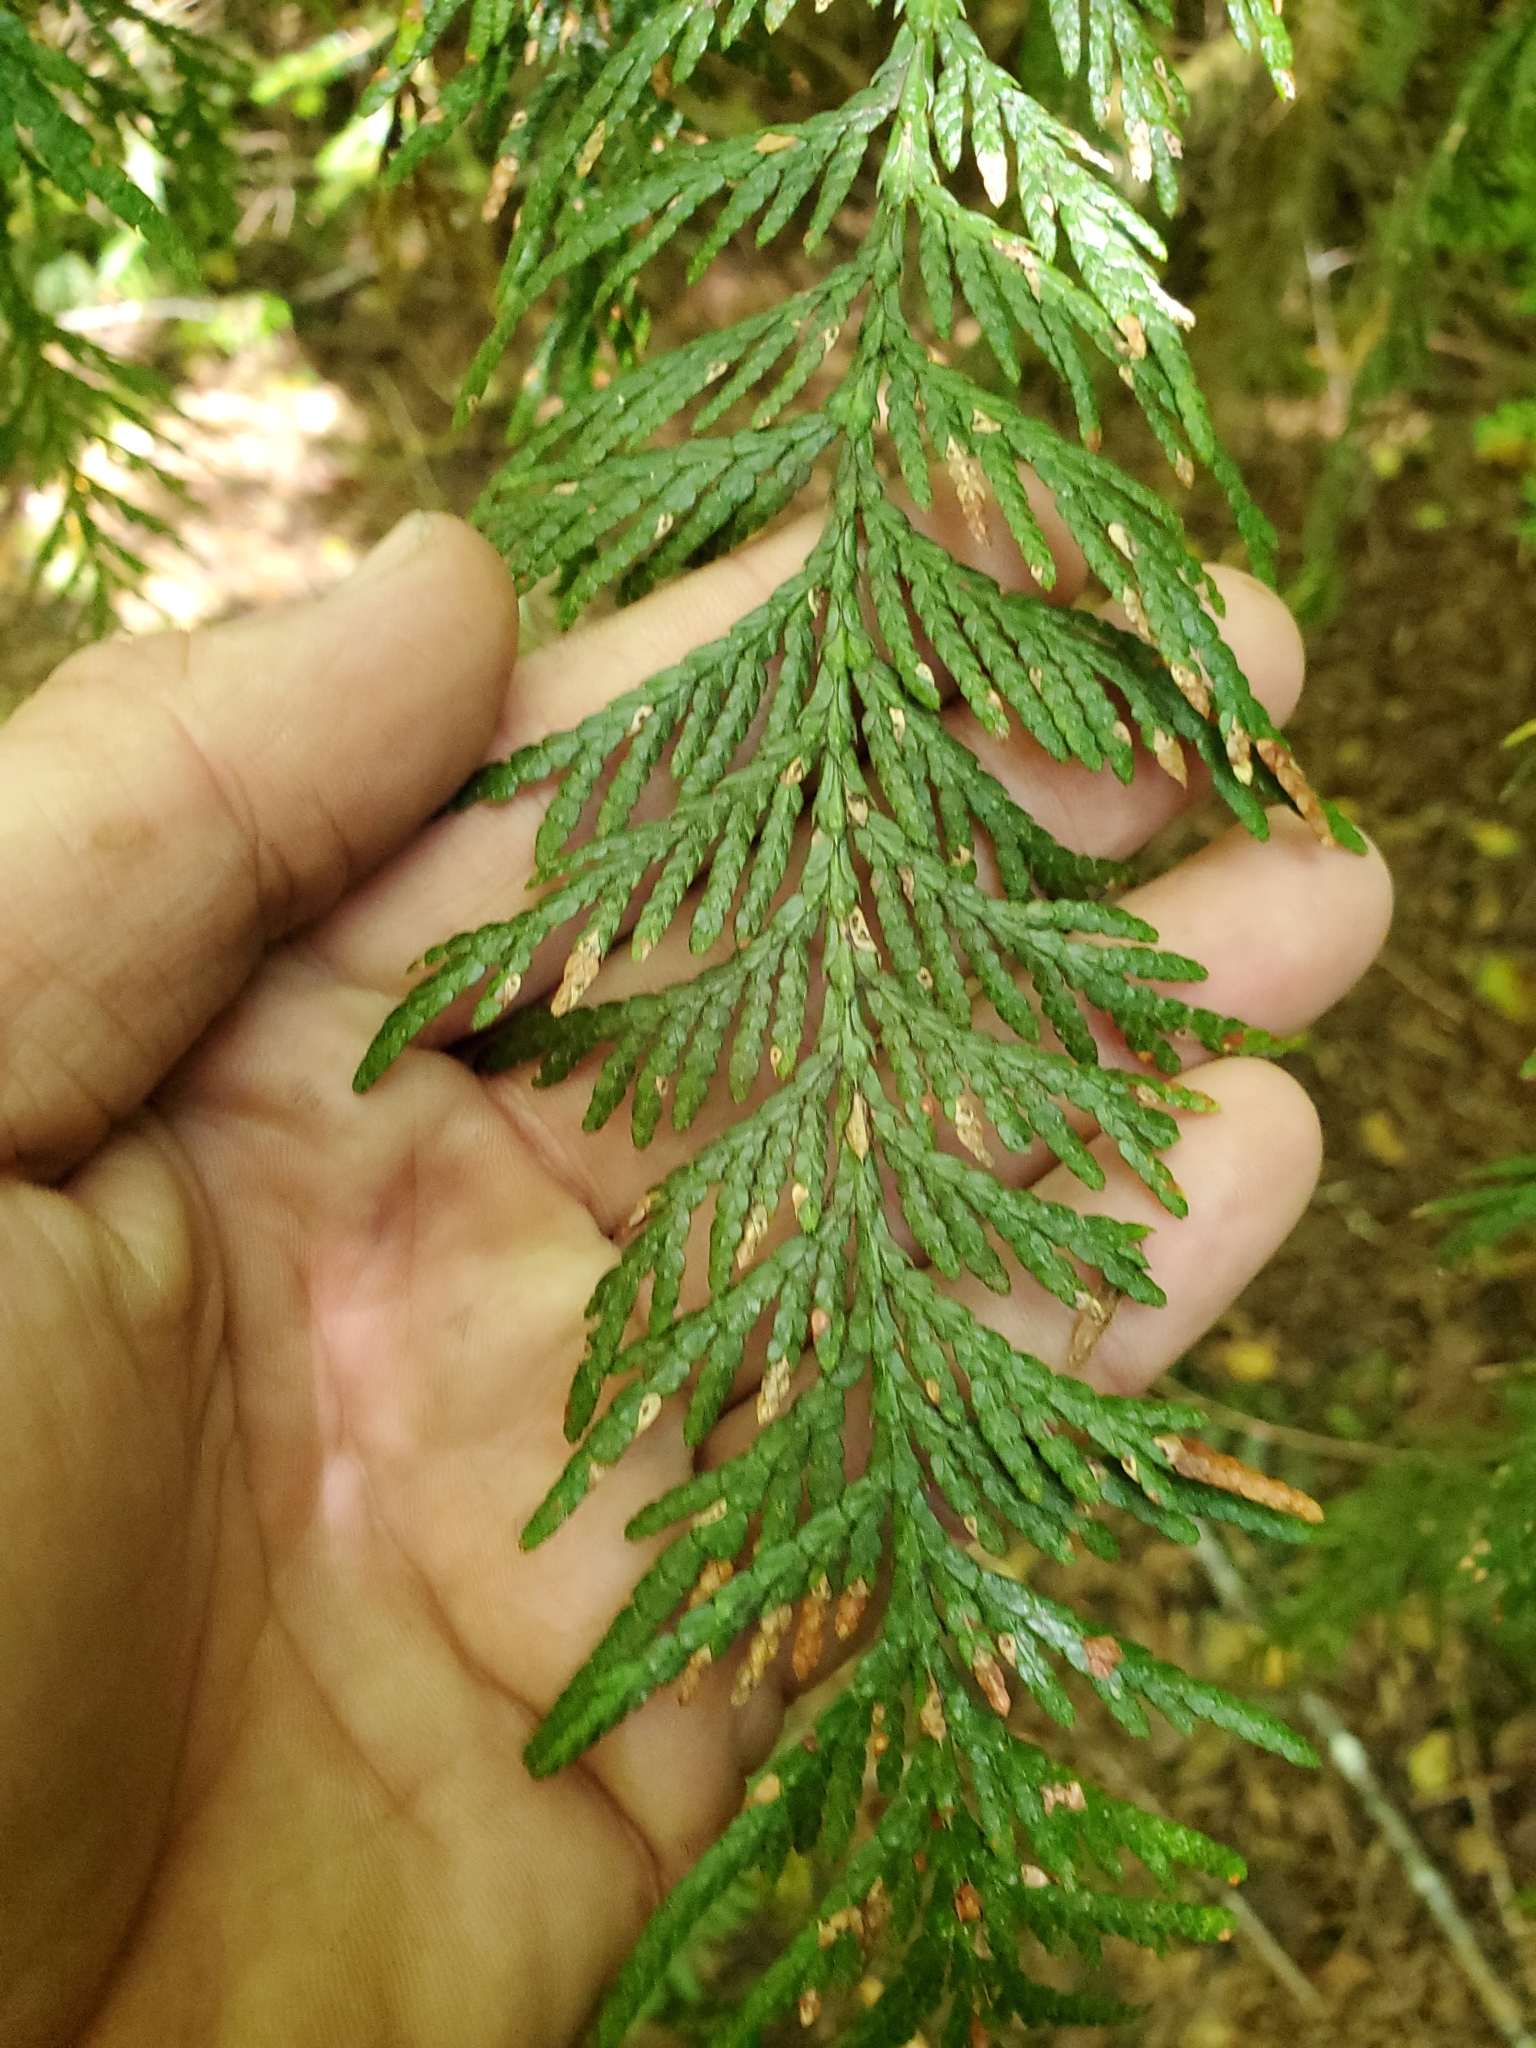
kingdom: Plantae
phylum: Tracheophyta
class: Pinopsida
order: Pinales
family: Cupressaceae
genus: Thuja
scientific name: Thuja plicata
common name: Western red-cedar
